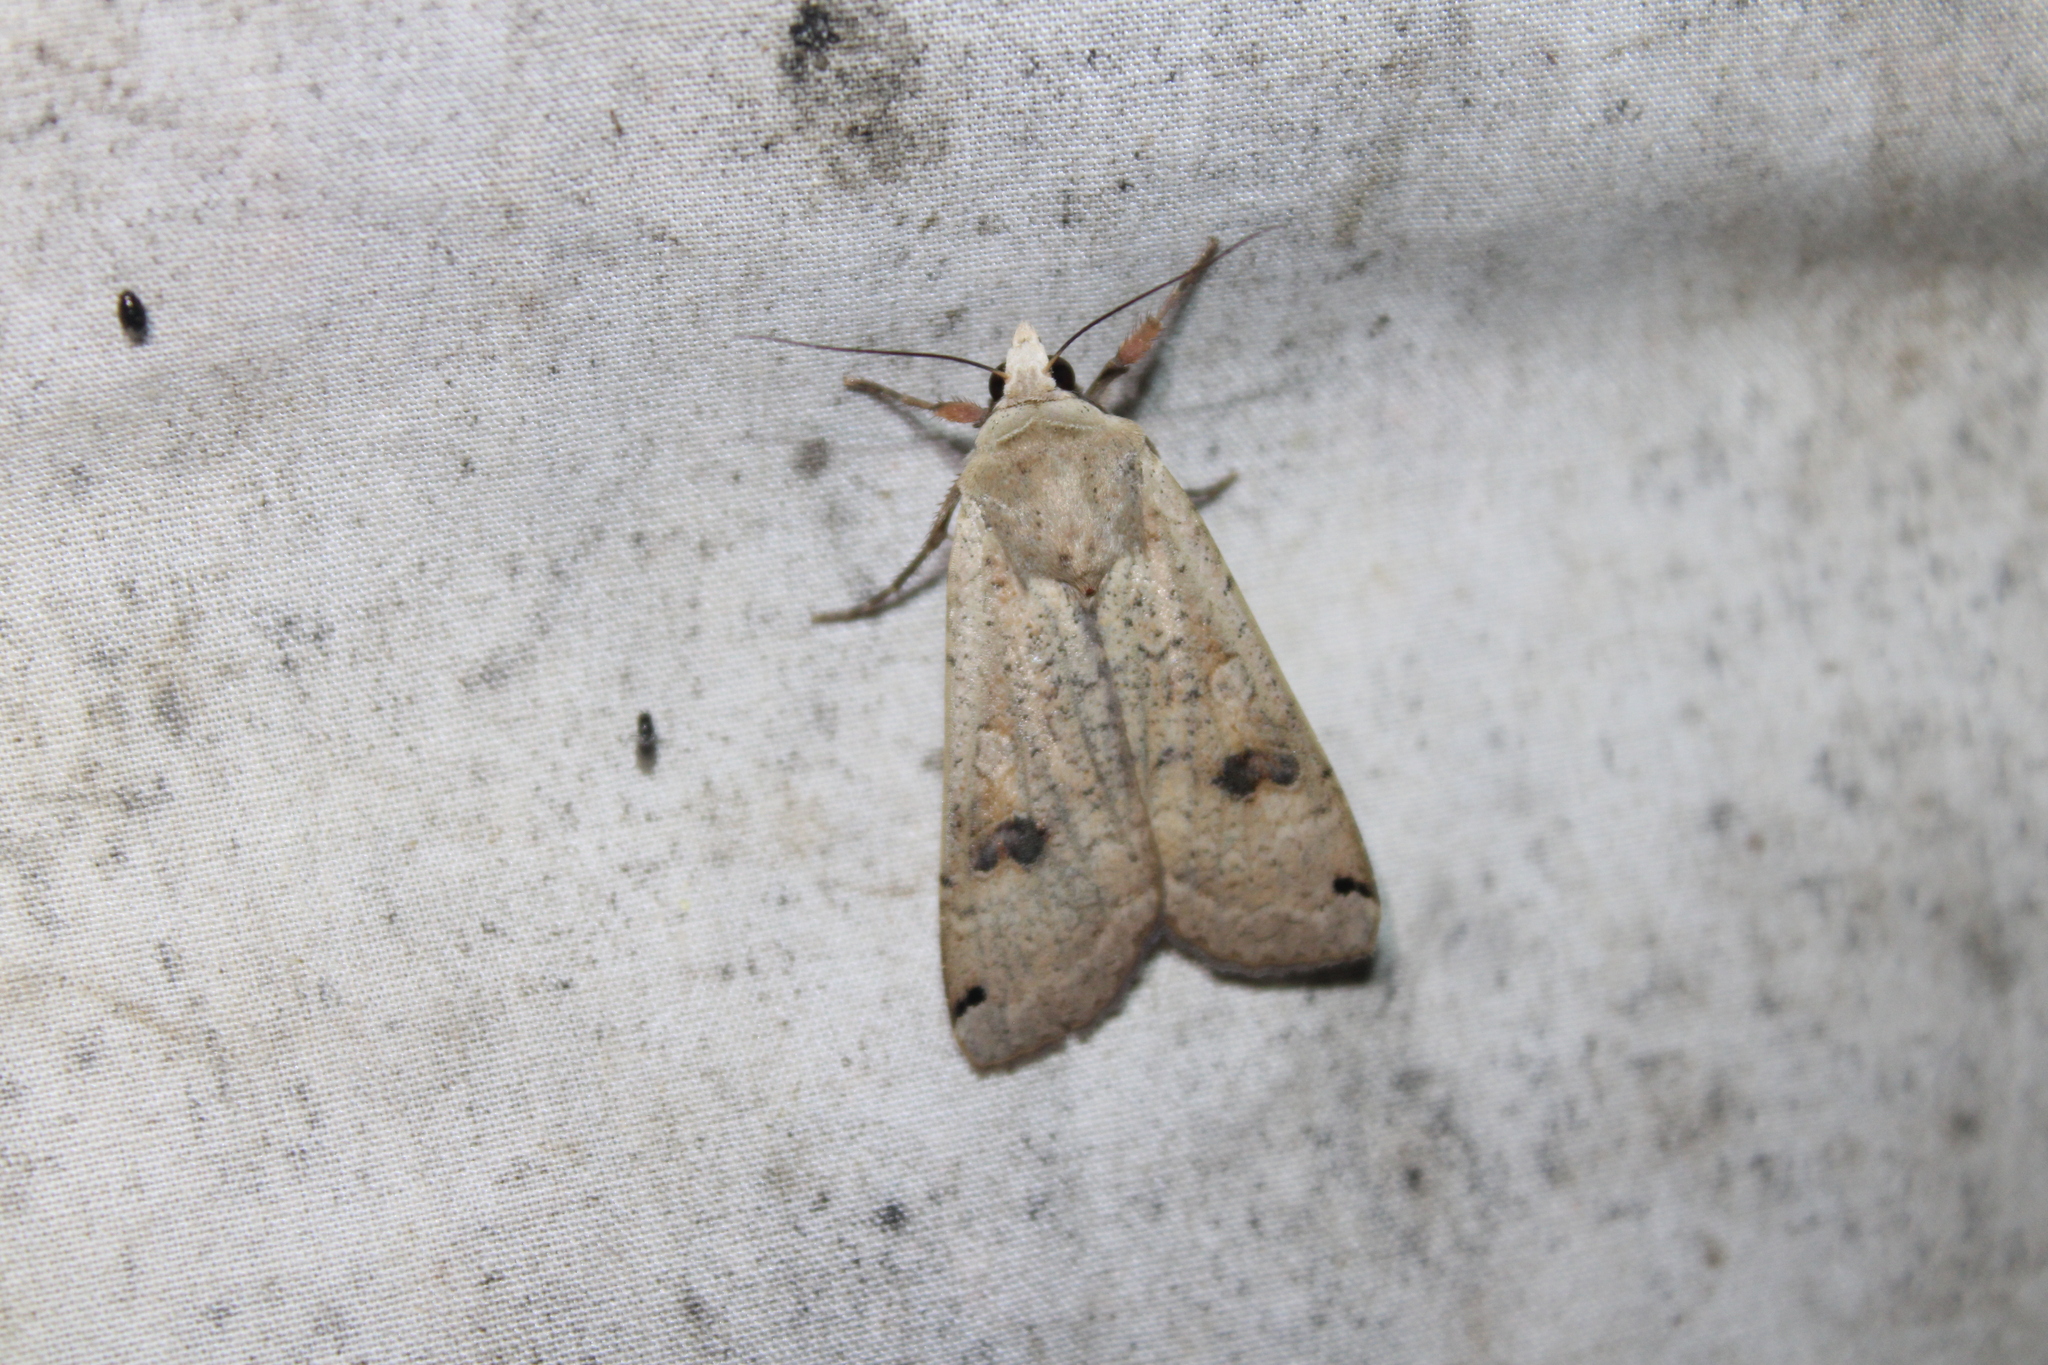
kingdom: Animalia
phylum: Arthropoda
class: Insecta
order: Lepidoptera
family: Noctuidae
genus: Noctua
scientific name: Noctua pronuba
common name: Large yellow underwing
